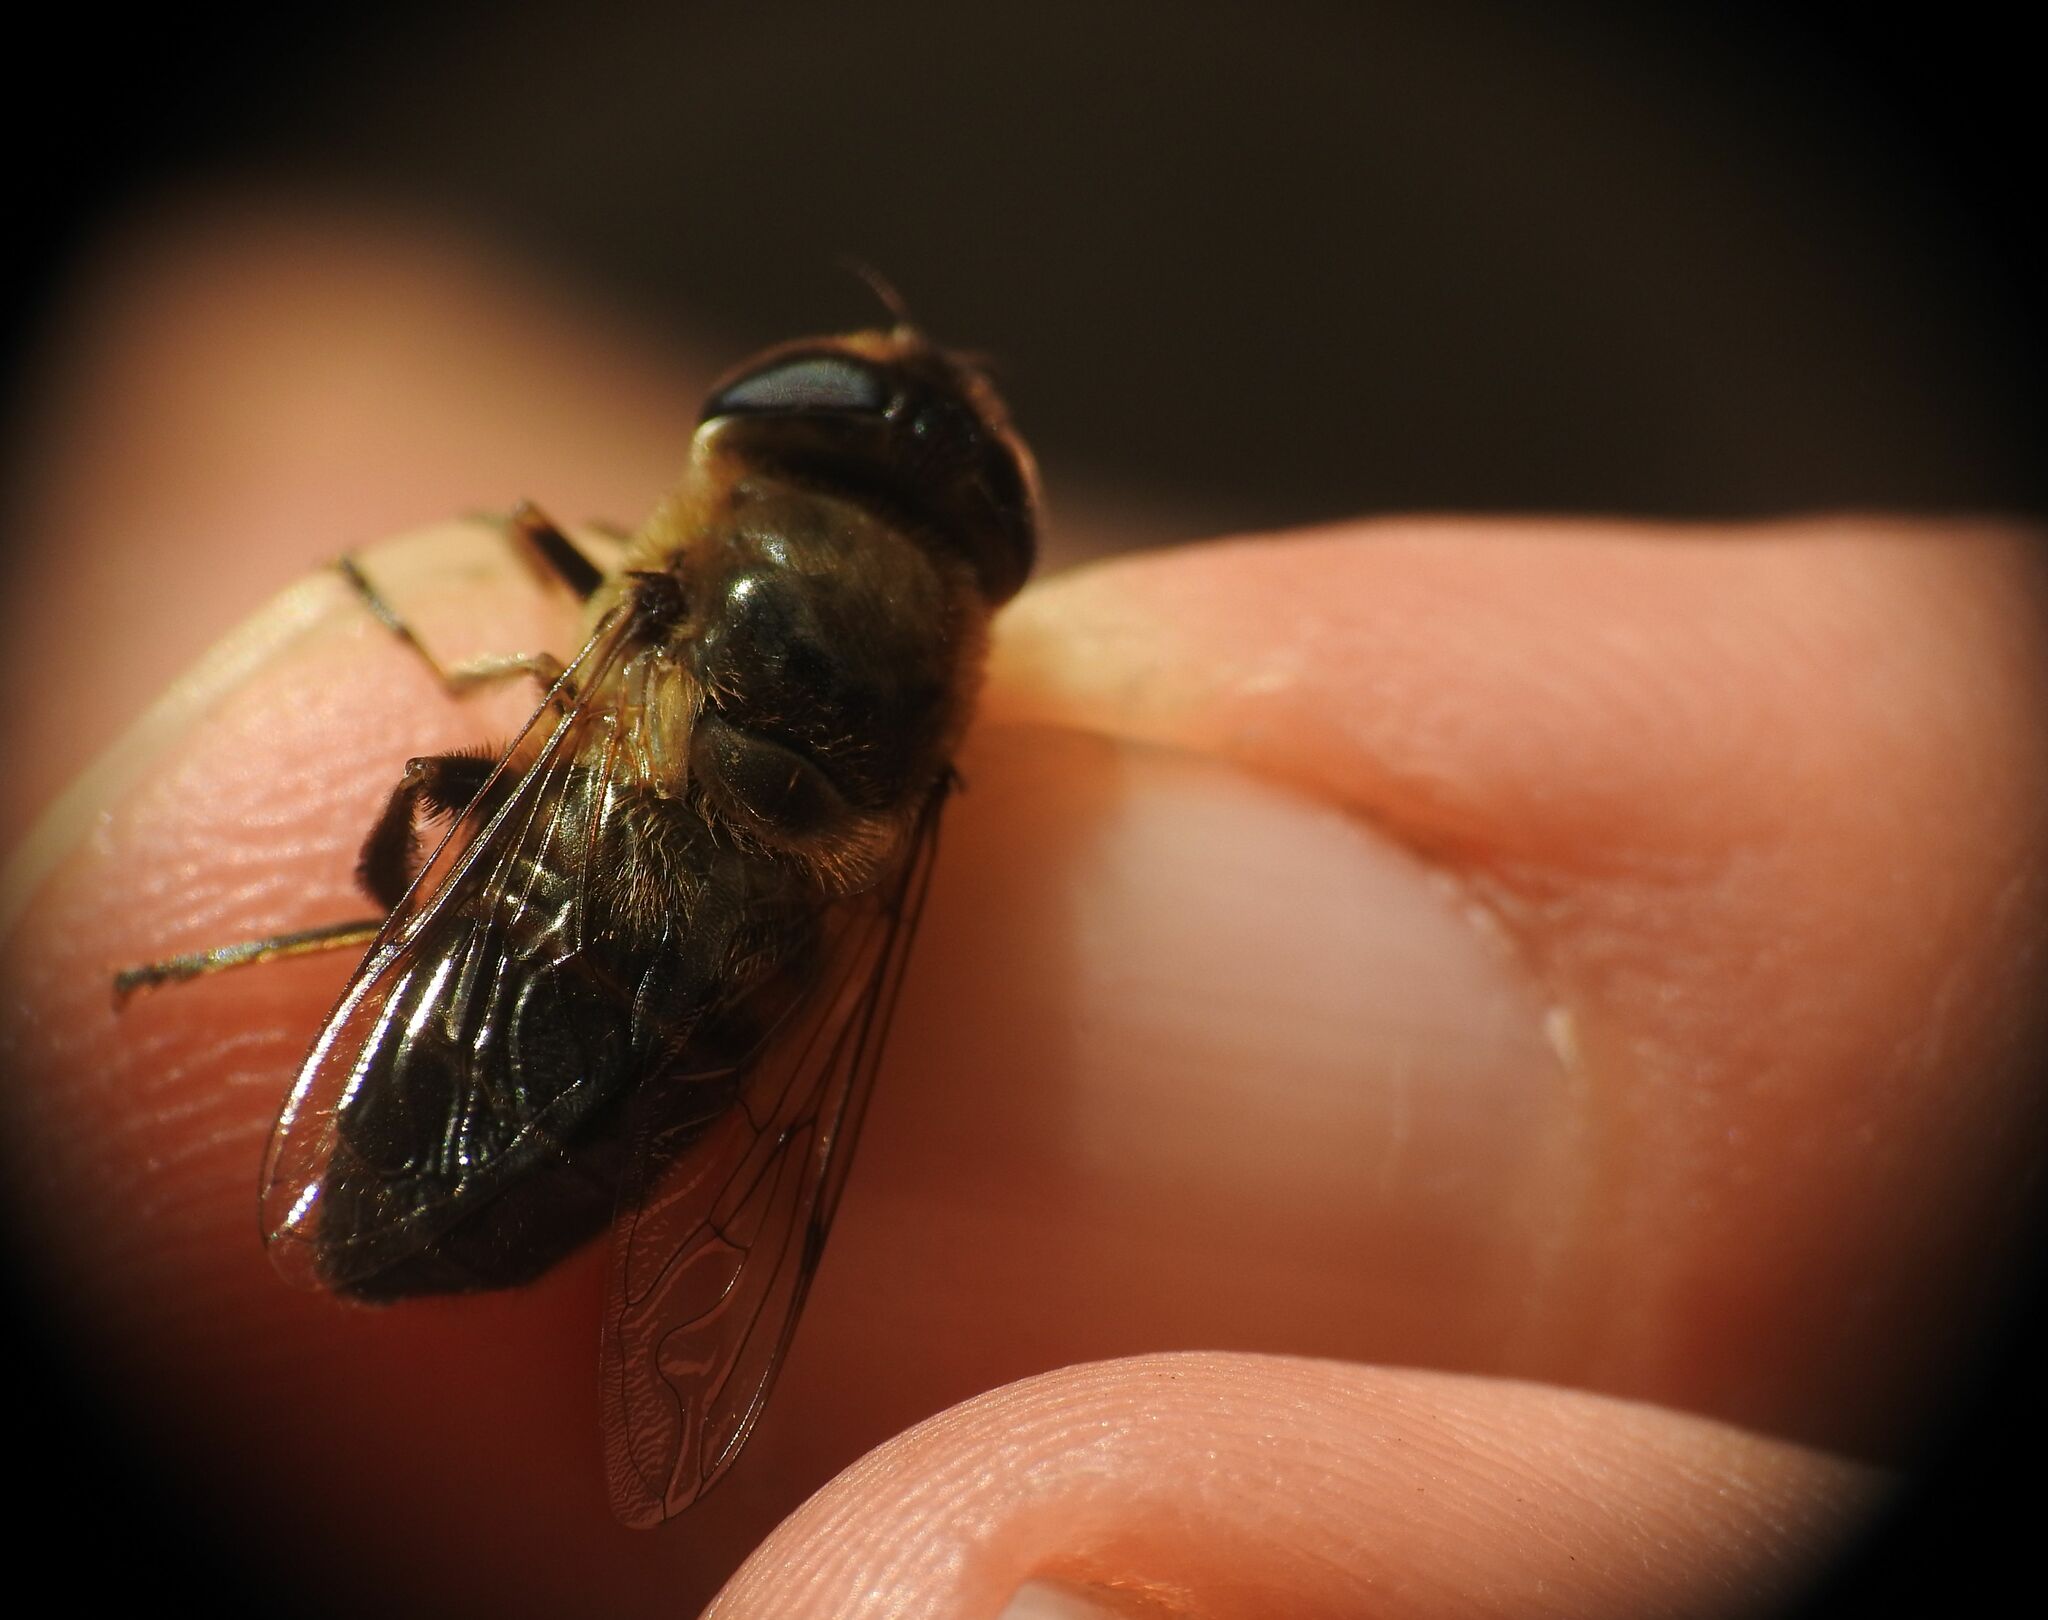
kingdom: Animalia
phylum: Arthropoda
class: Insecta
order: Diptera
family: Syrphidae
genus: Eristalis
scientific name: Eristalis tenax
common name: Drone fly
